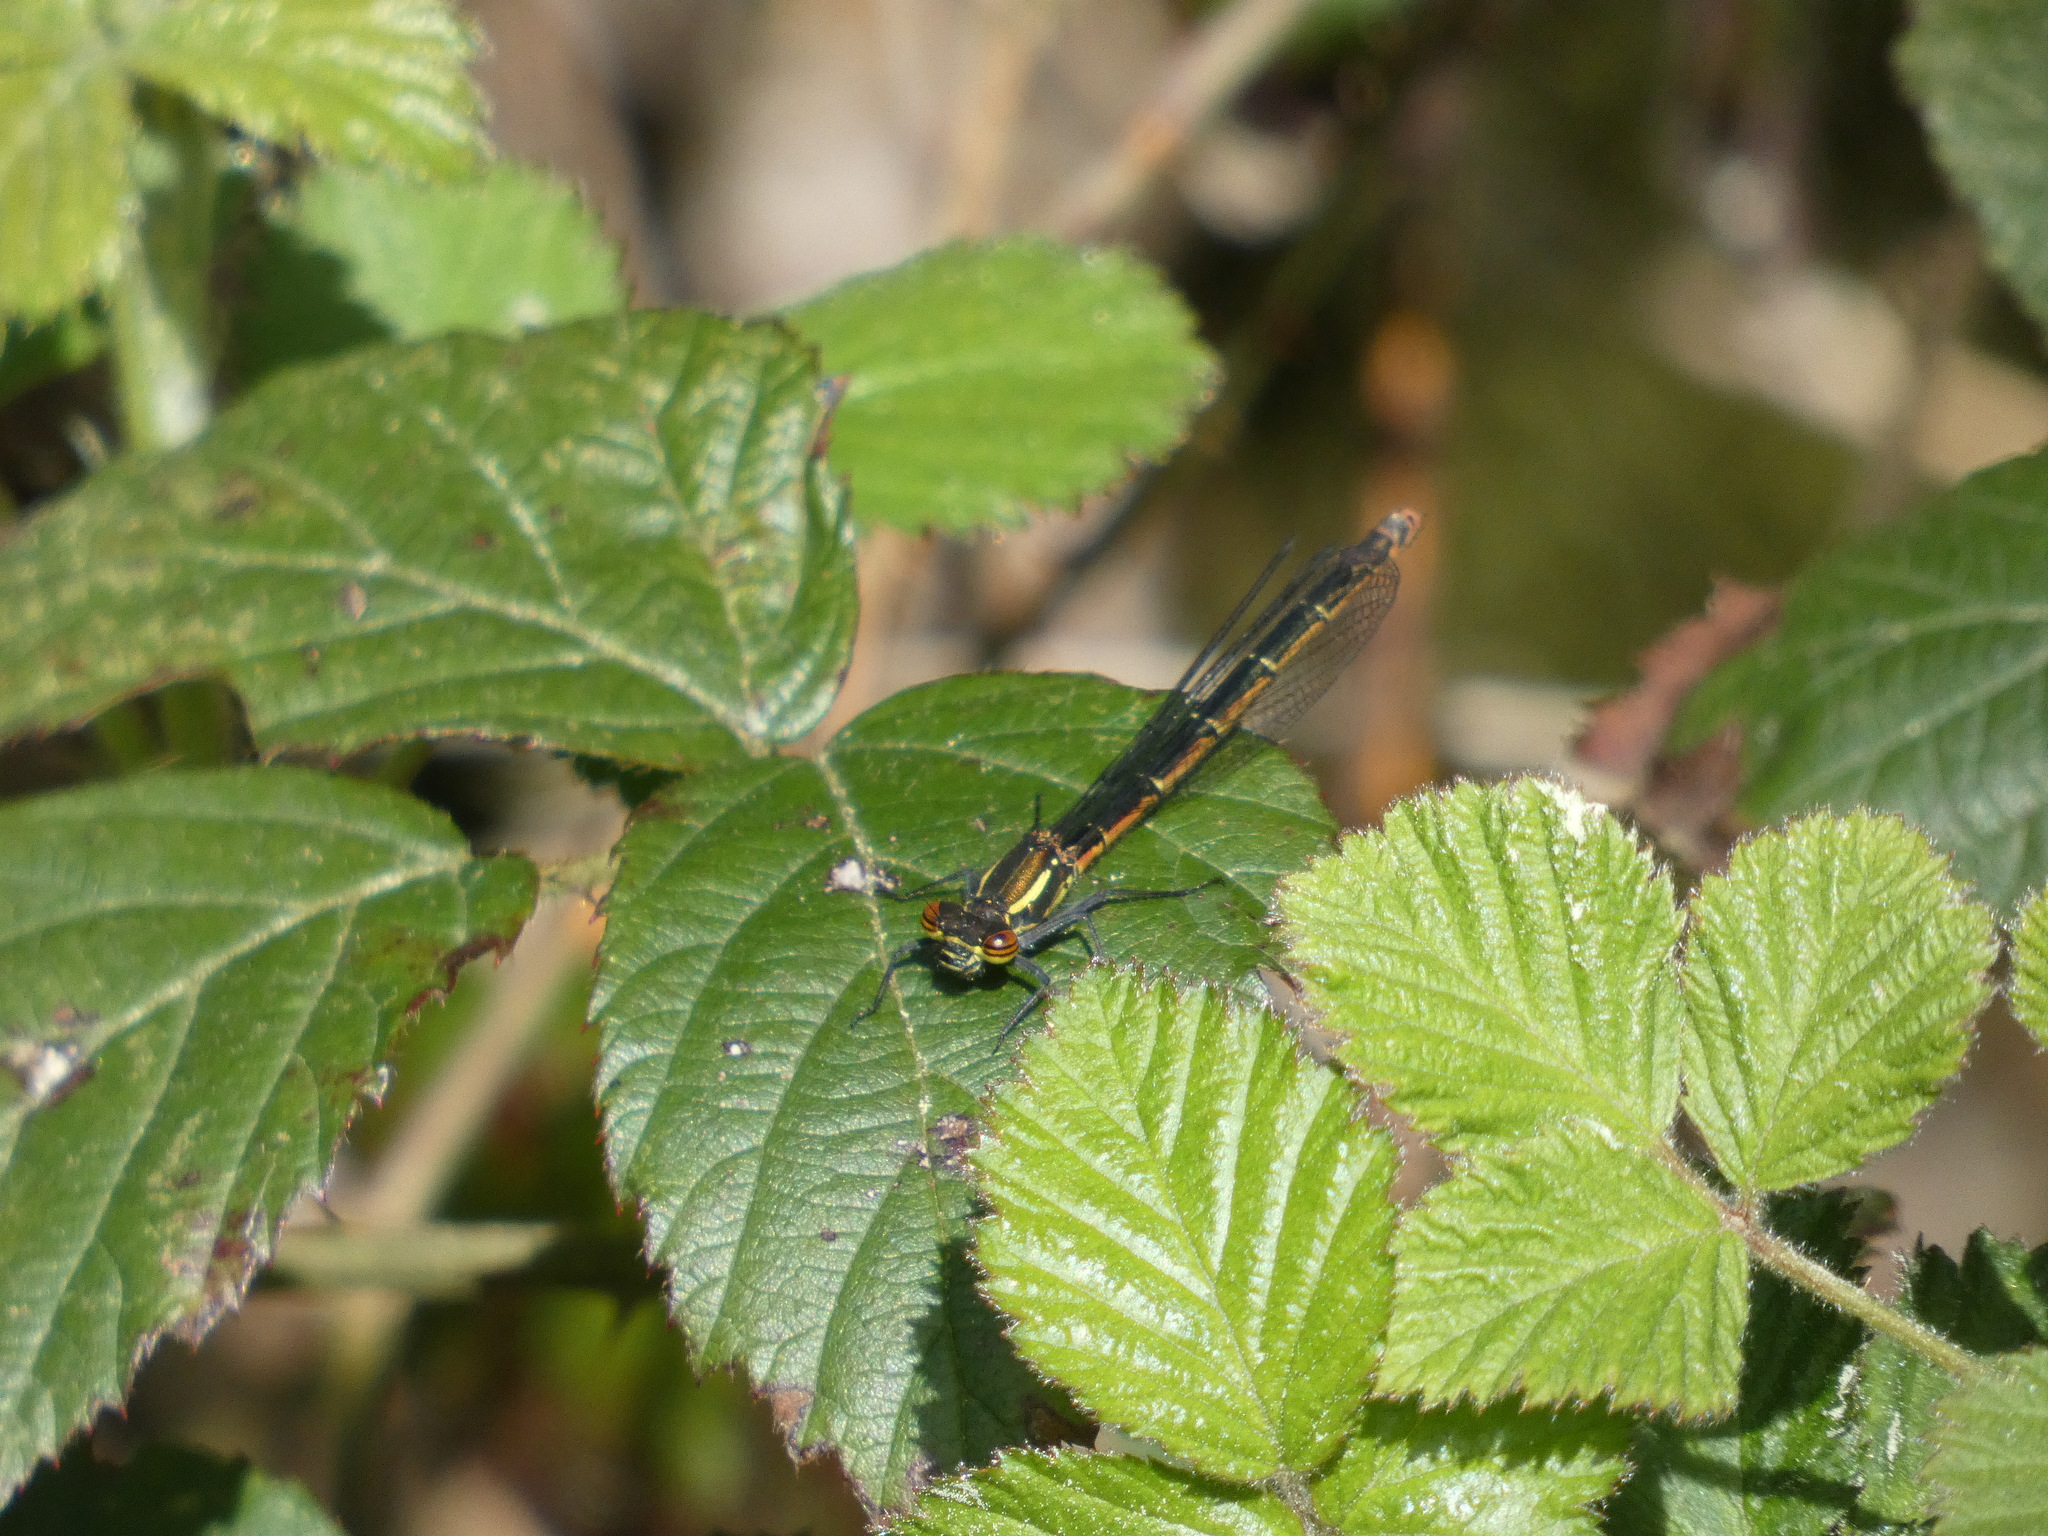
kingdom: Animalia
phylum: Arthropoda
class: Insecta
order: Odonata
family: Coenagrionidae
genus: Pyrrhosoma
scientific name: Pyrrhosoma nymphula
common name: Large red damsel
